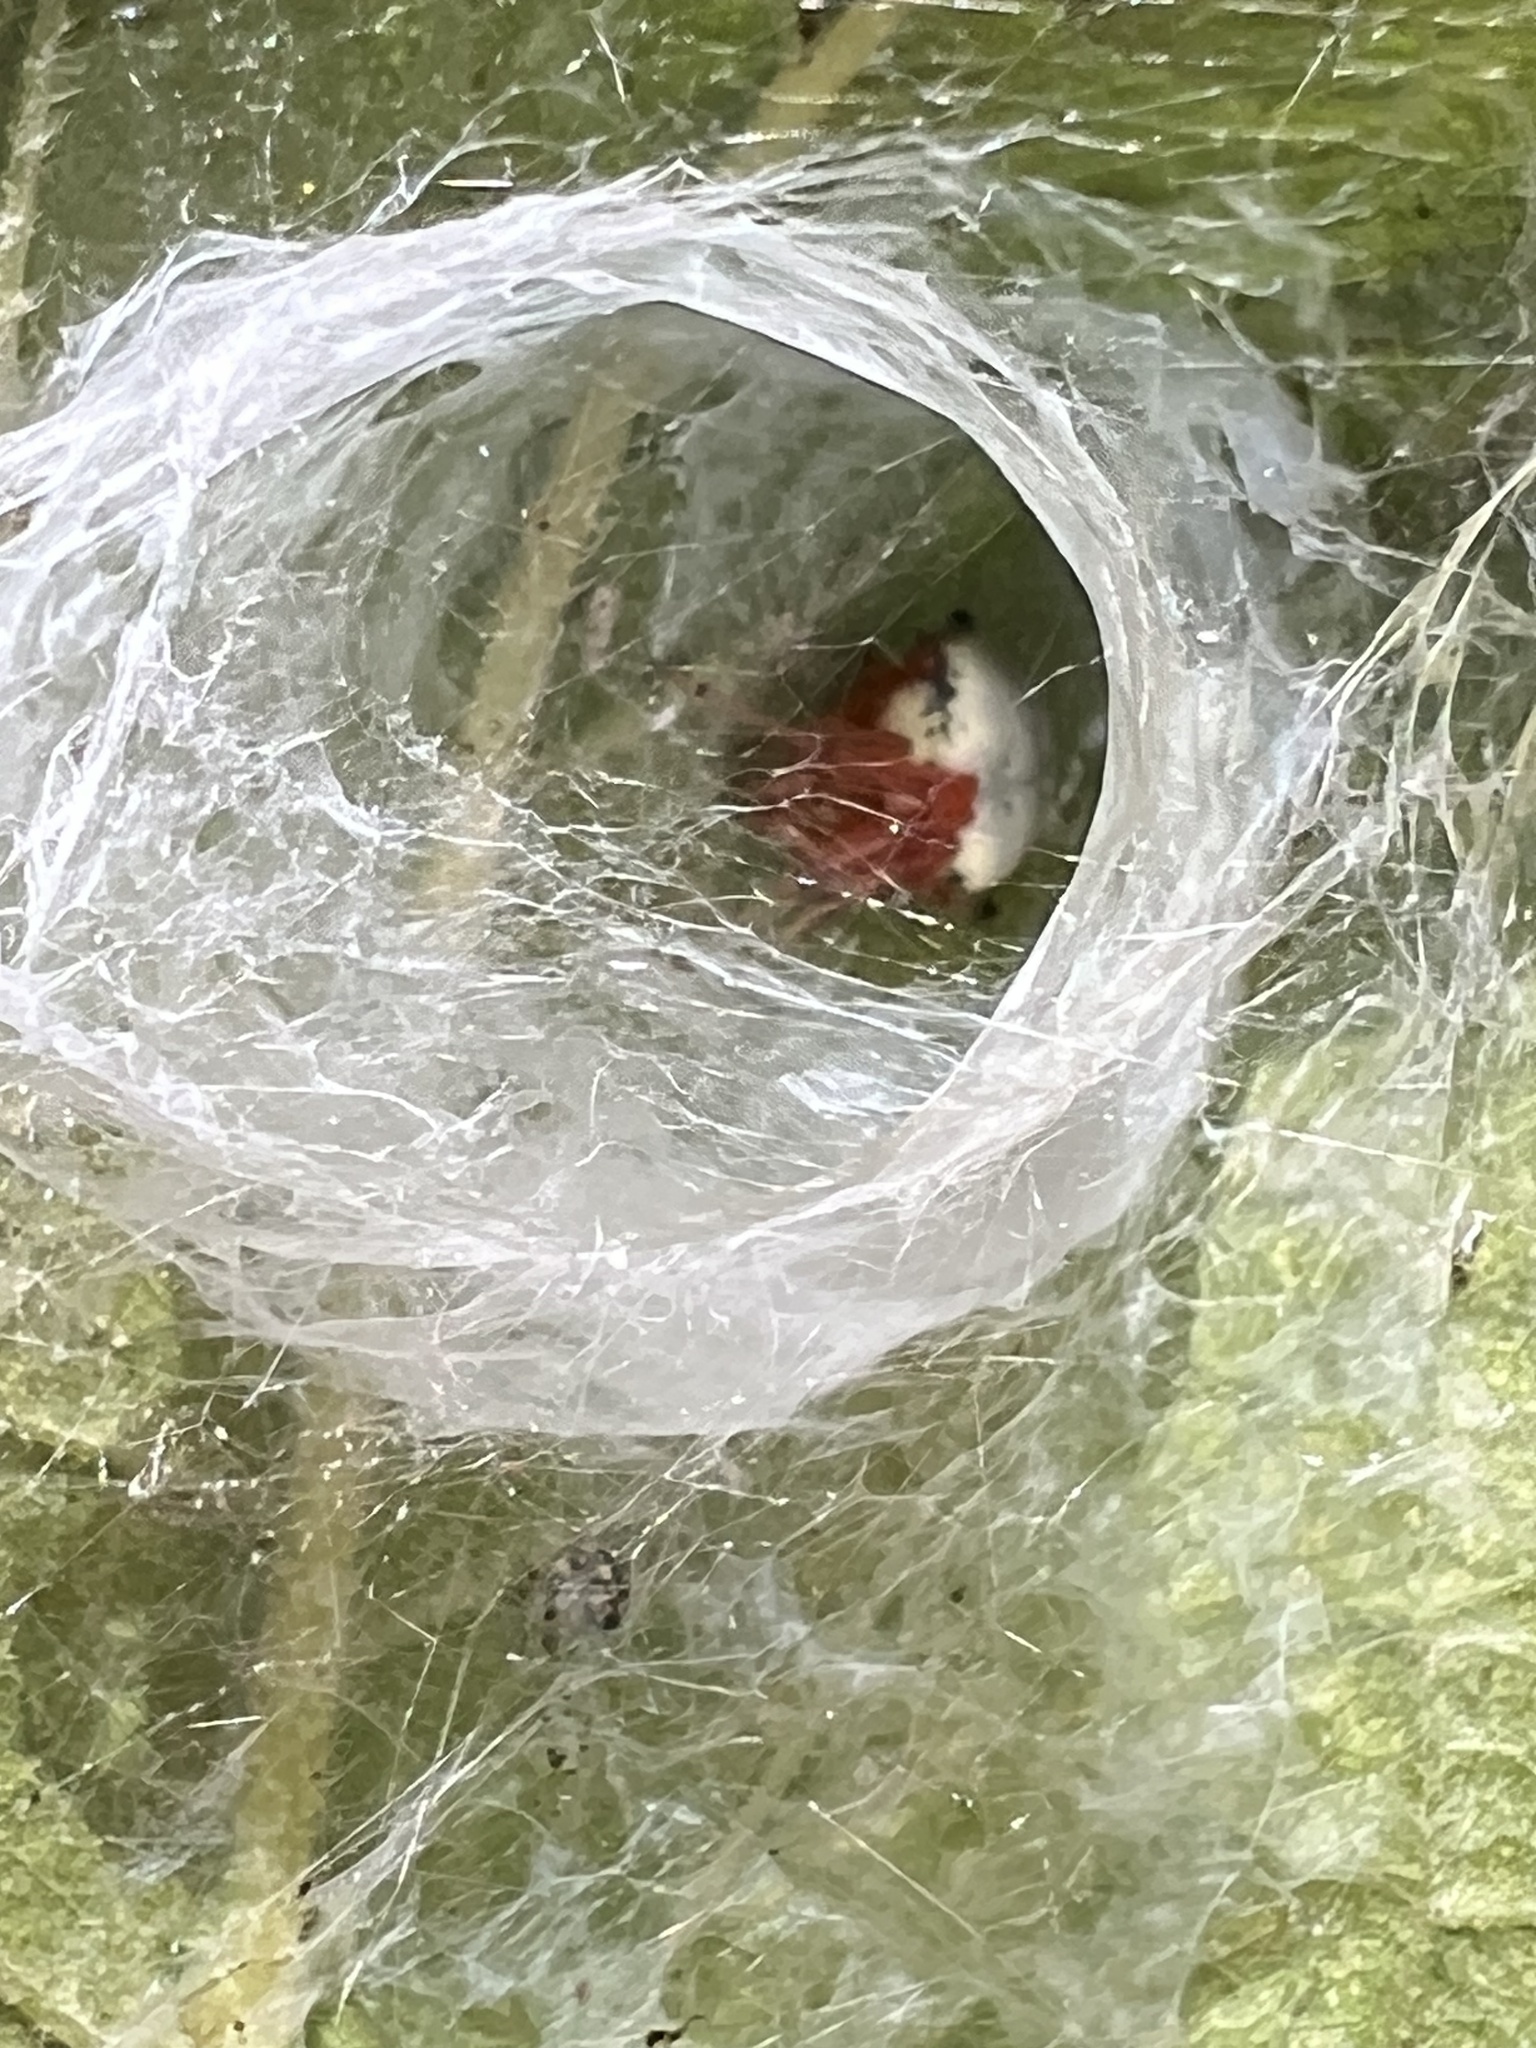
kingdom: Animalia
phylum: Arthropoda
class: Arachnida
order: Araneae
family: Araneidae
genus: Araneus
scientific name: Araneus thaddeus
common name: Lattice orbweaver
